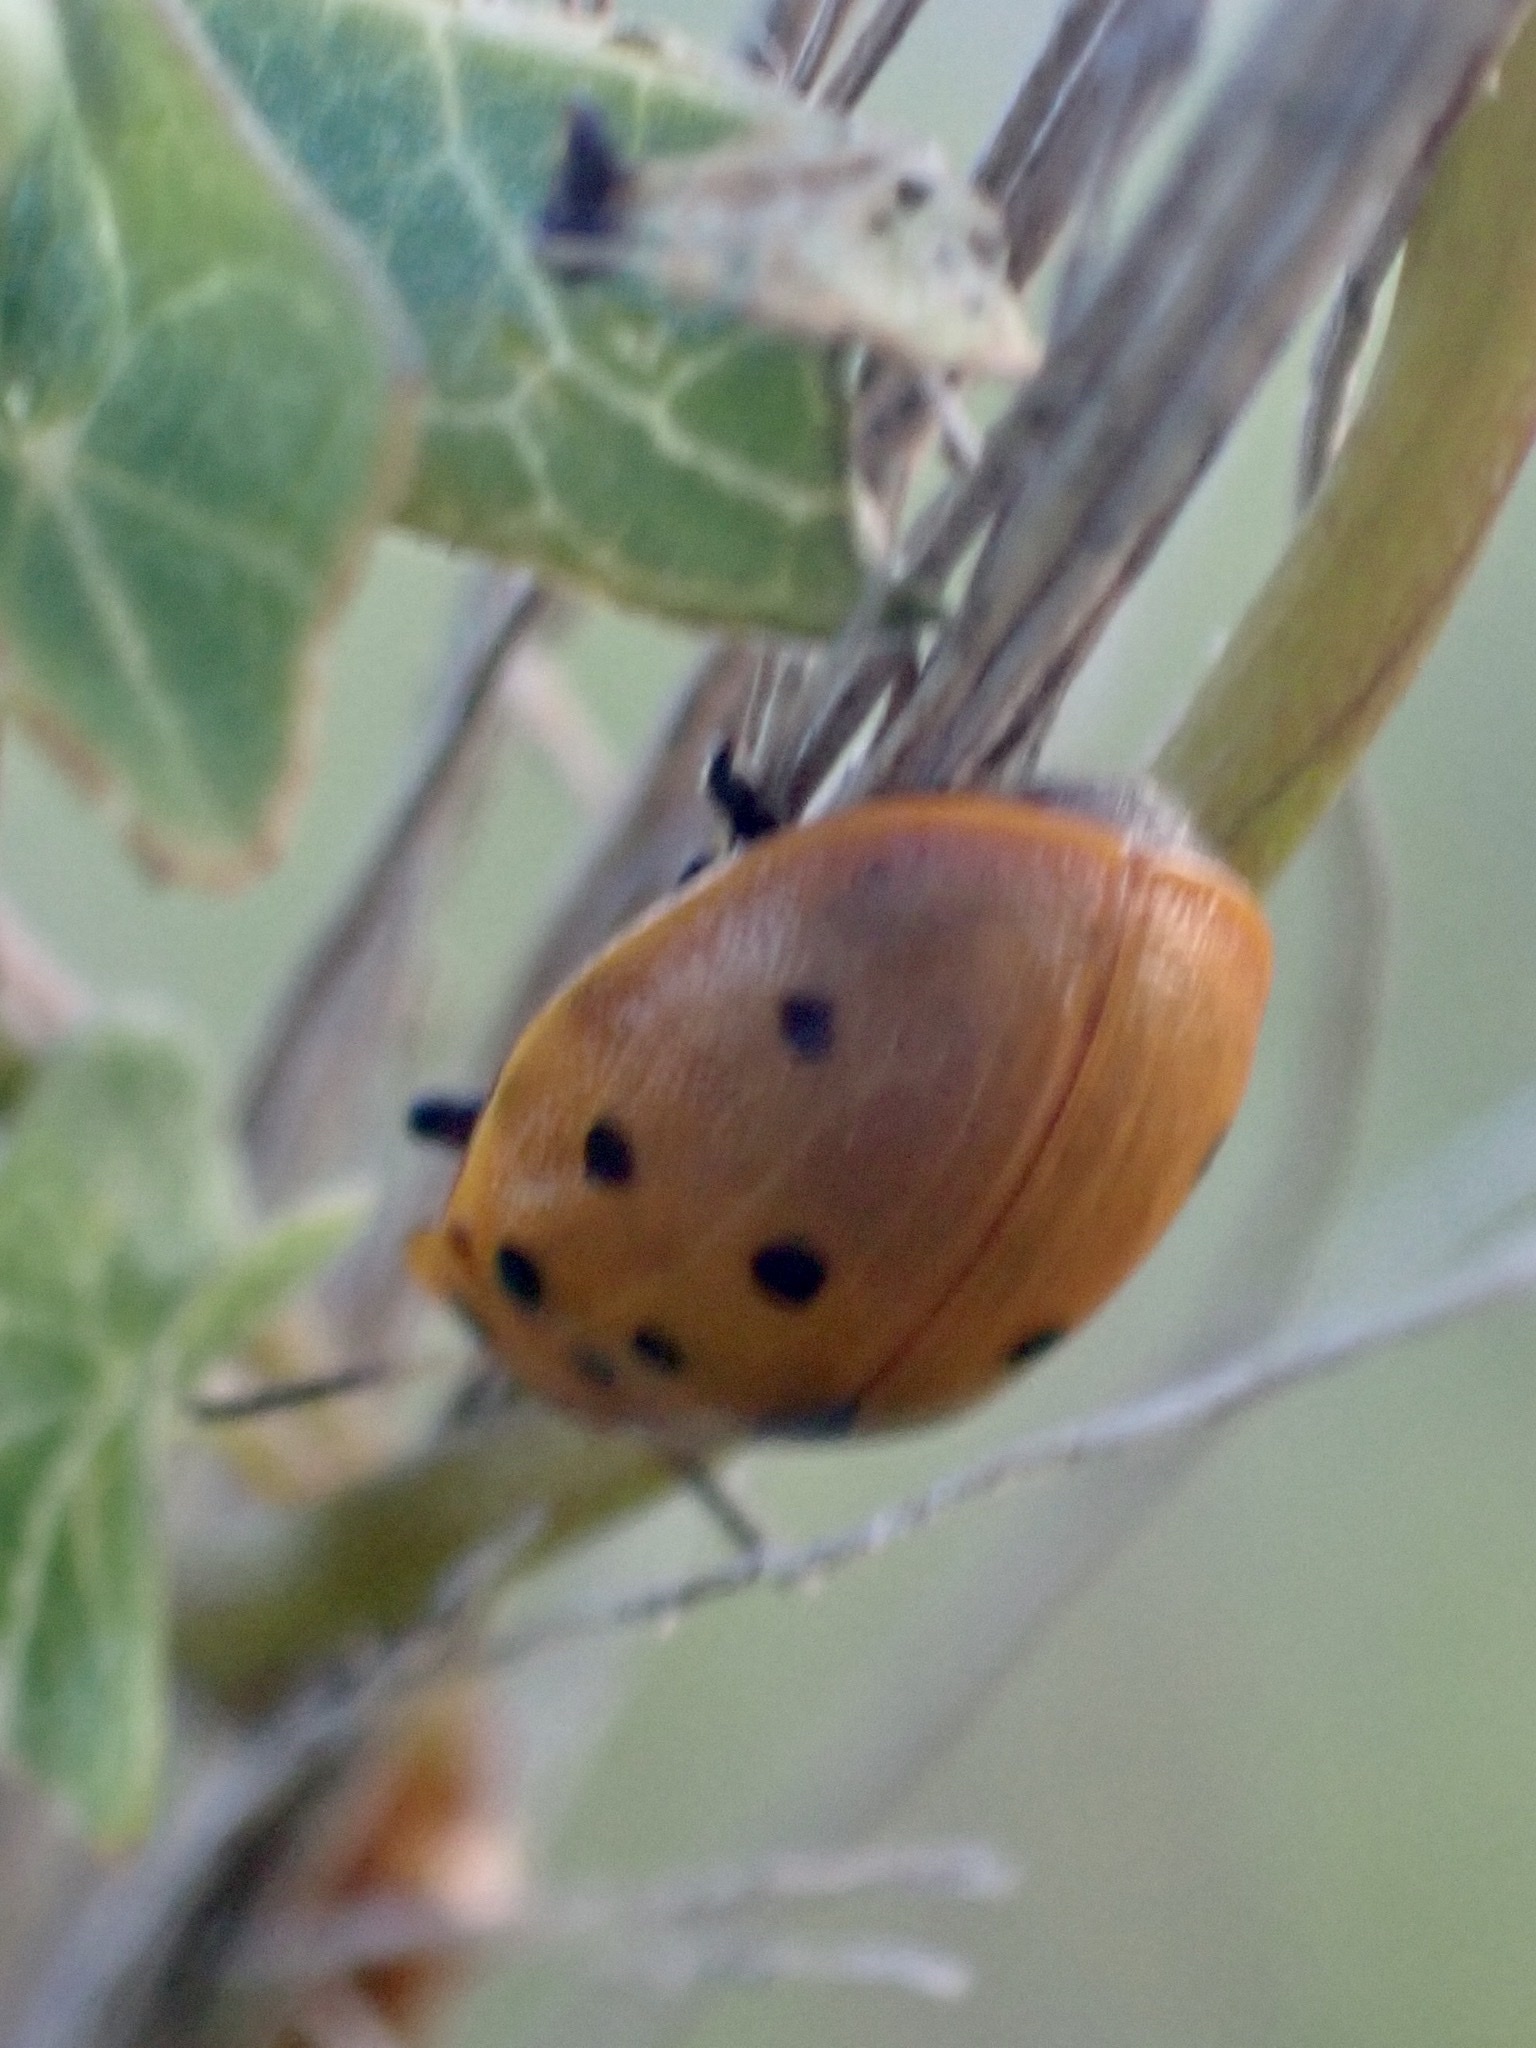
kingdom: Animalia
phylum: Arthropoda
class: Insecta
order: Coleoptera
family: Chrysomelidae
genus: Chelymorpha
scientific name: Chelymorpha cassidea
